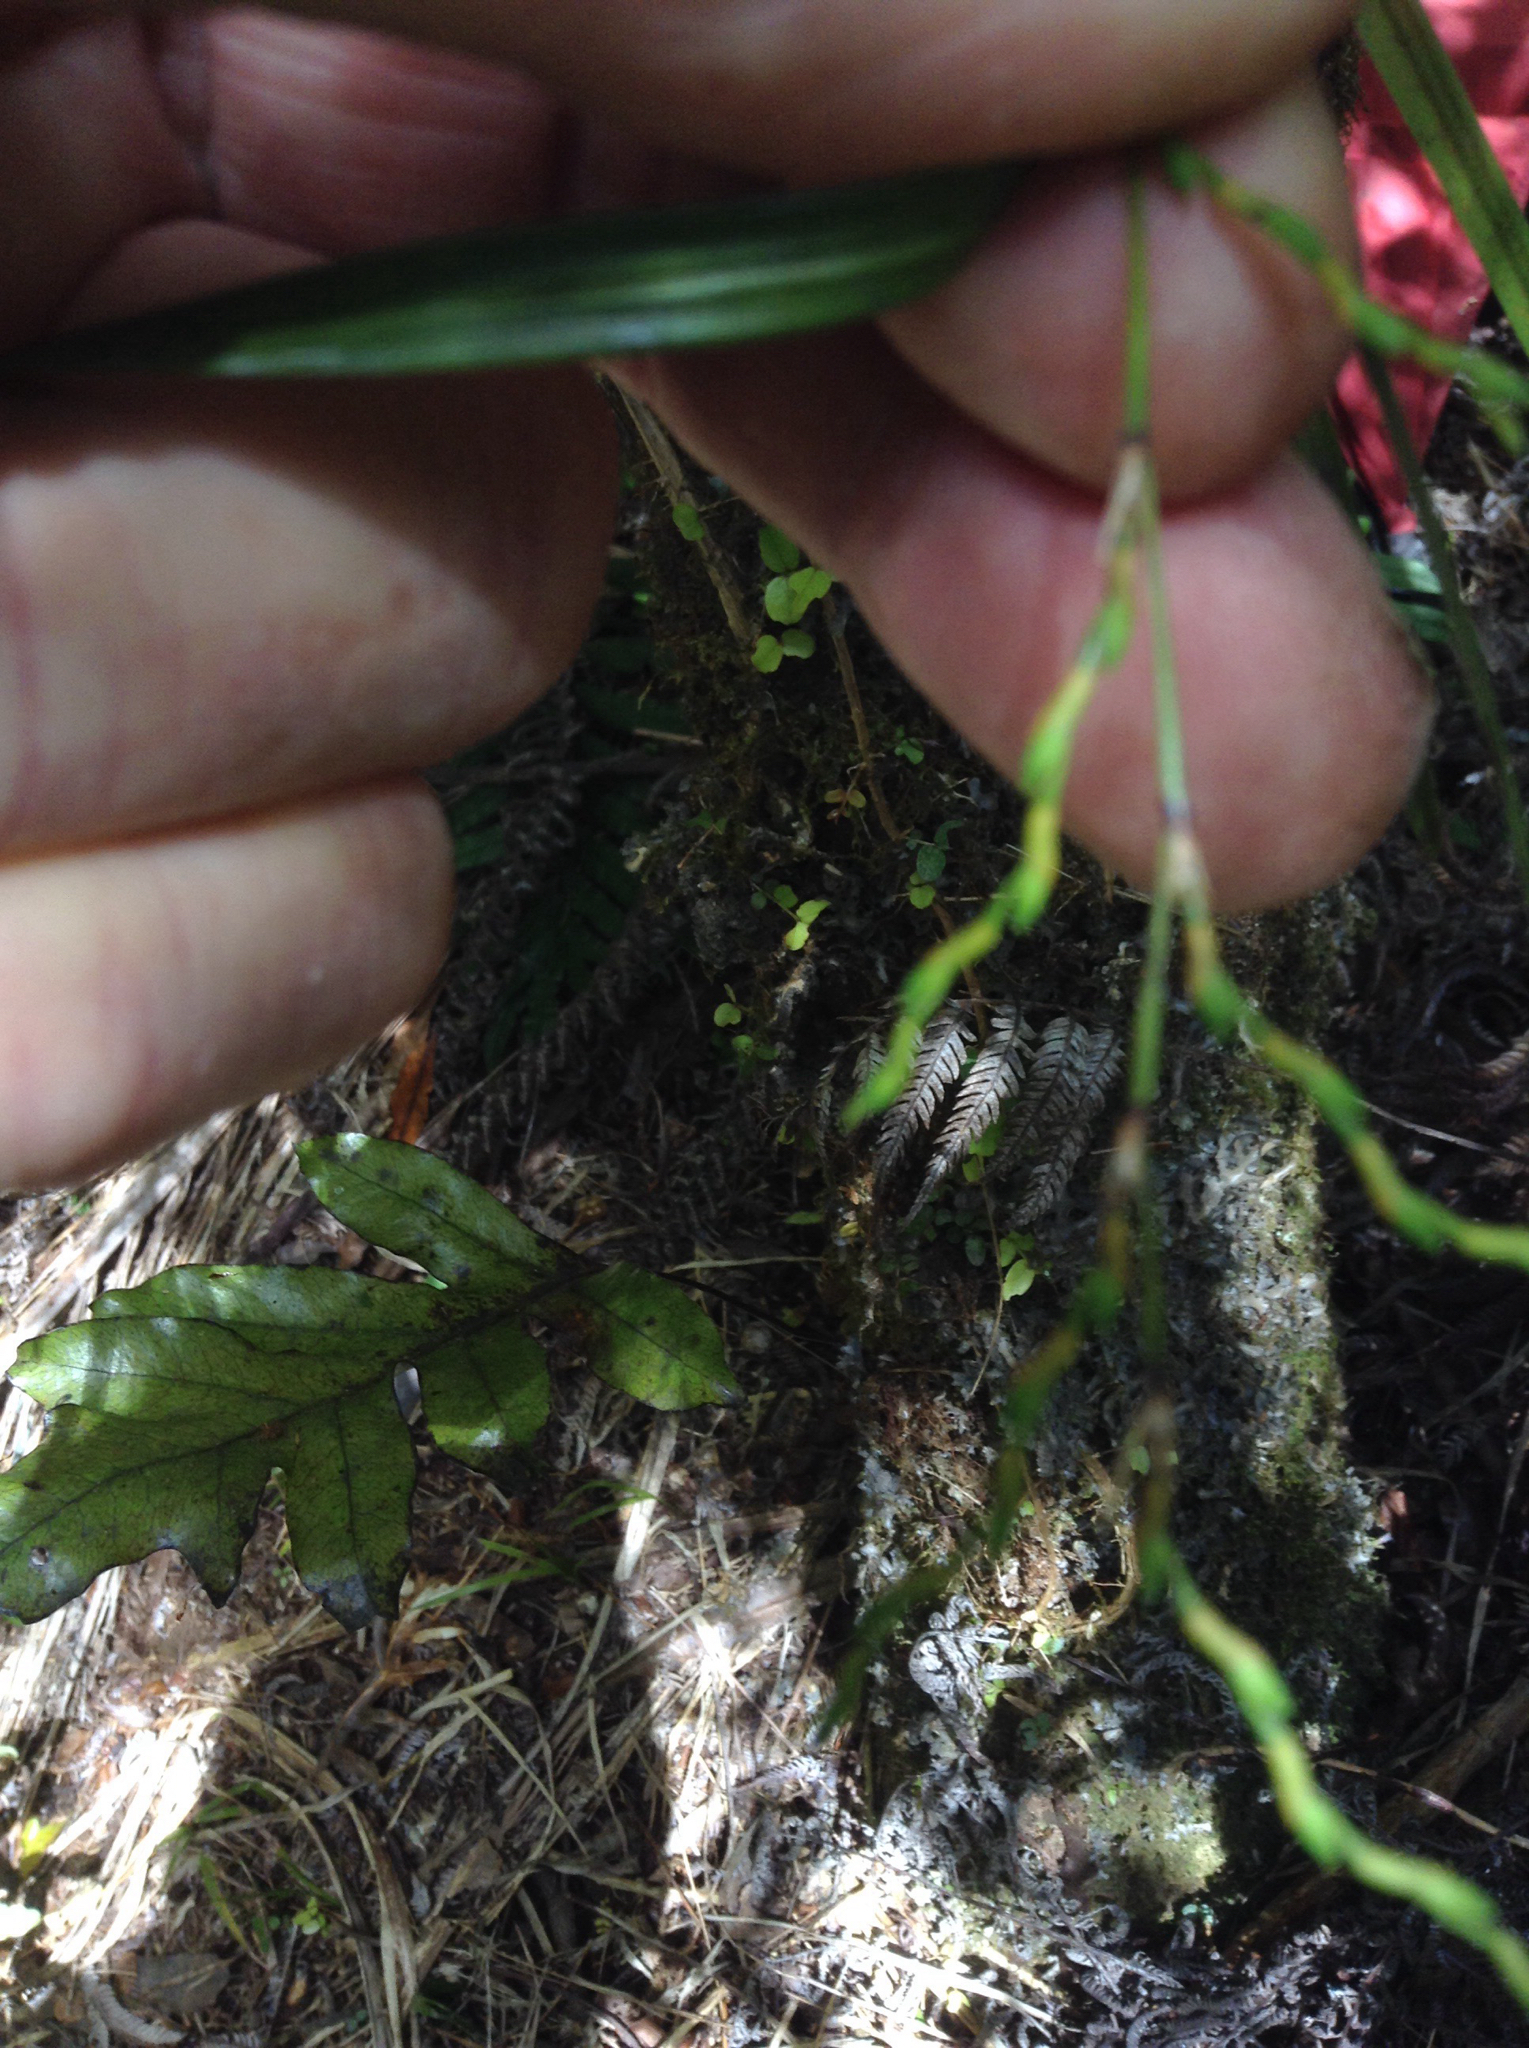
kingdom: Plantae
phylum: Tracheophyta
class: Liliopsida
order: Asparagales
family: Orchidaceae
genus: Earina
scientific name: Earina mucronata
